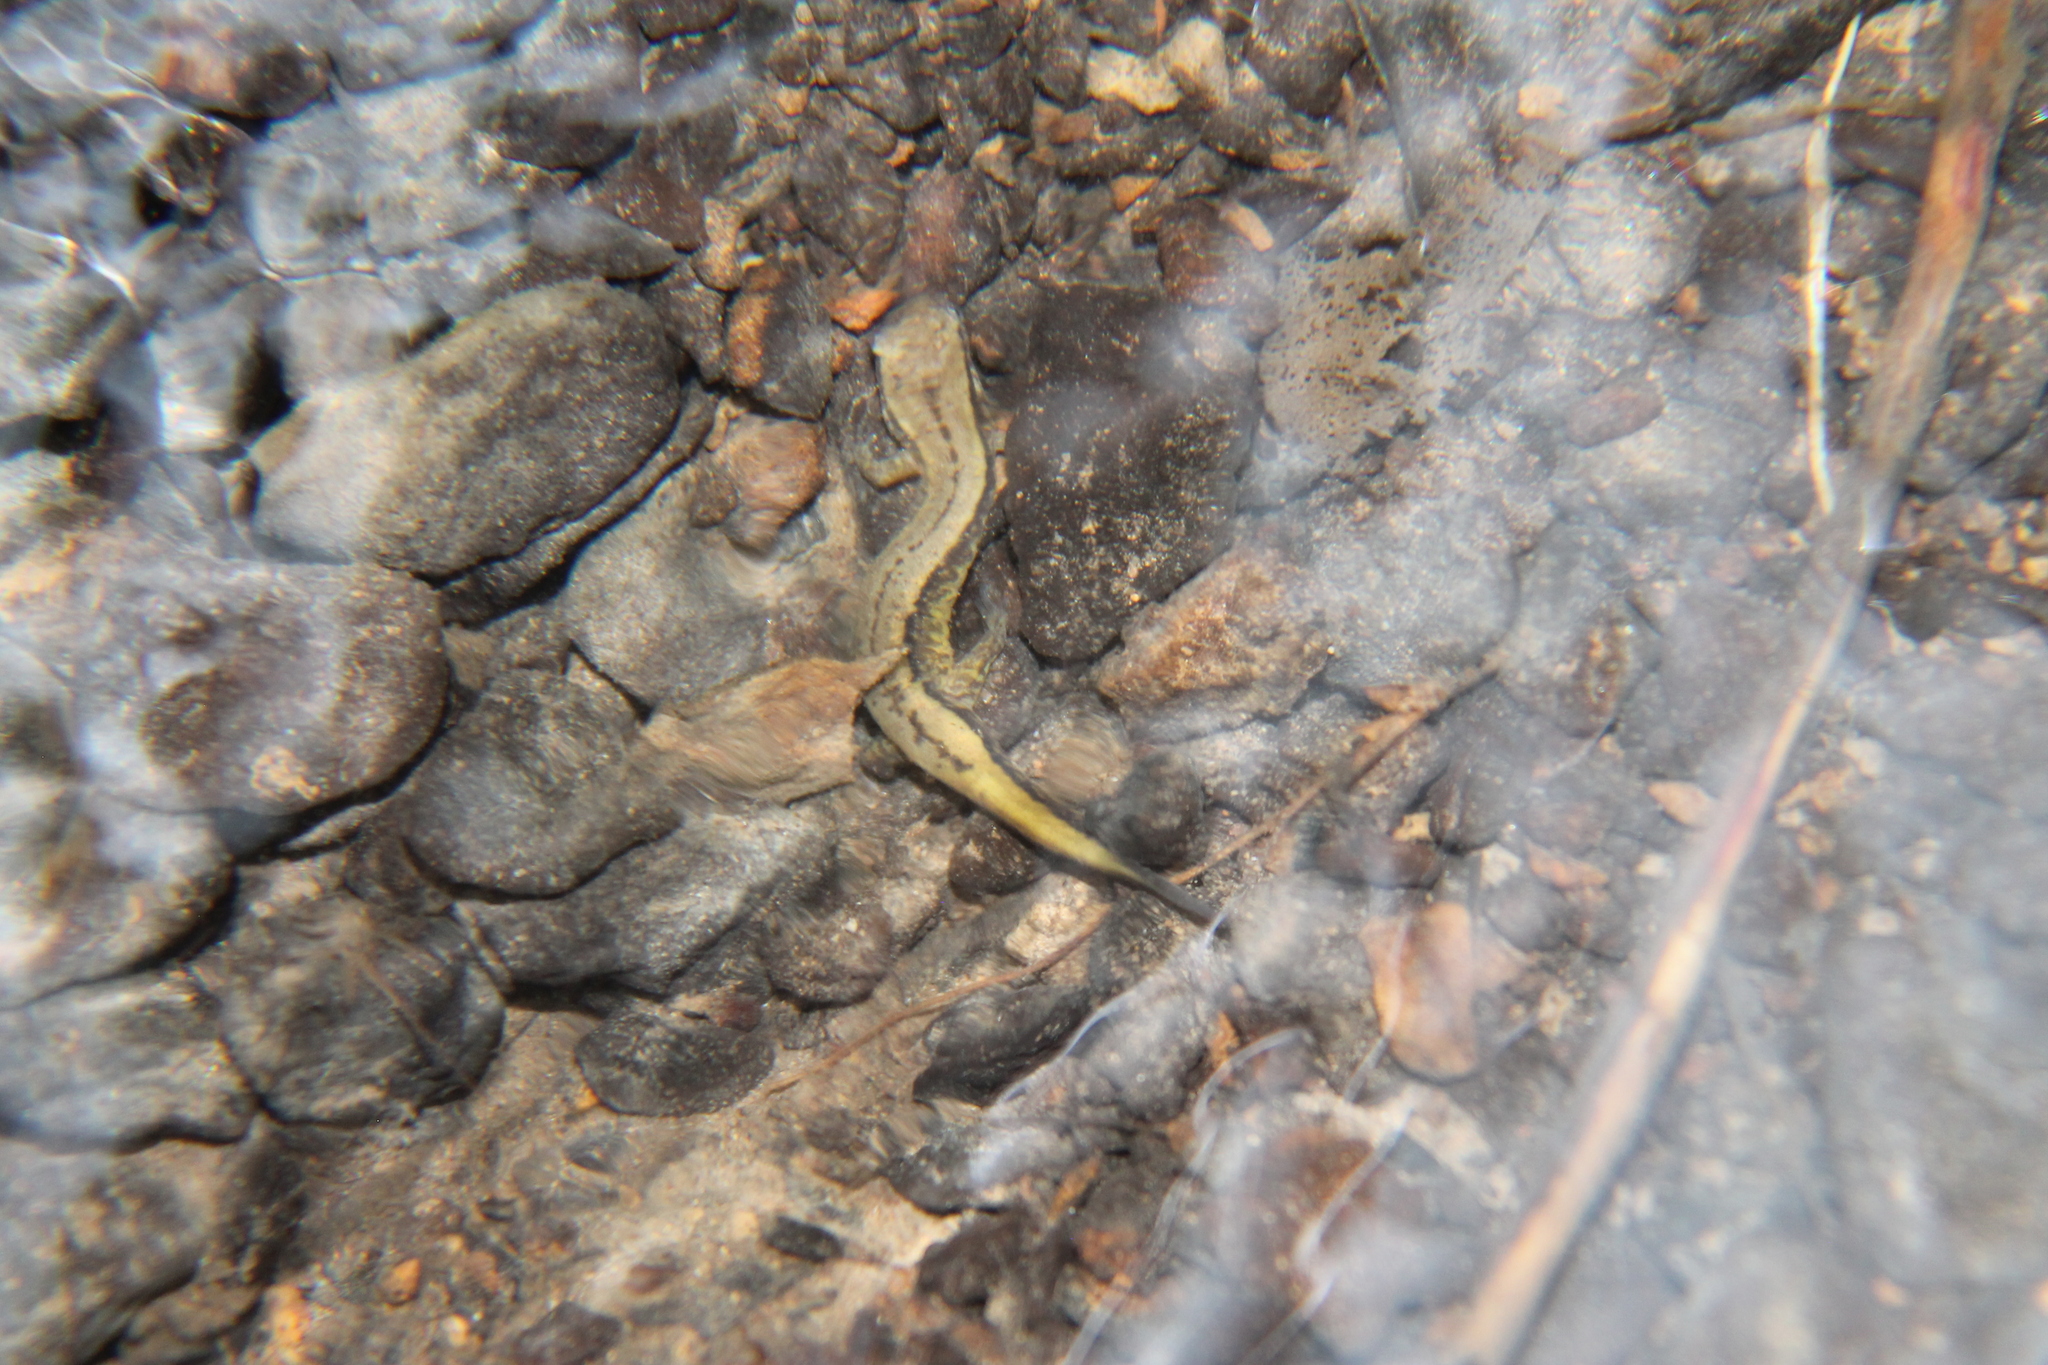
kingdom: Animalia
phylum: Chordata
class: Amphibia
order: Caudata
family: Plethodontidae
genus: Eurycea
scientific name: Eurycea cirrigera
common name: Southern two-lined salamander
